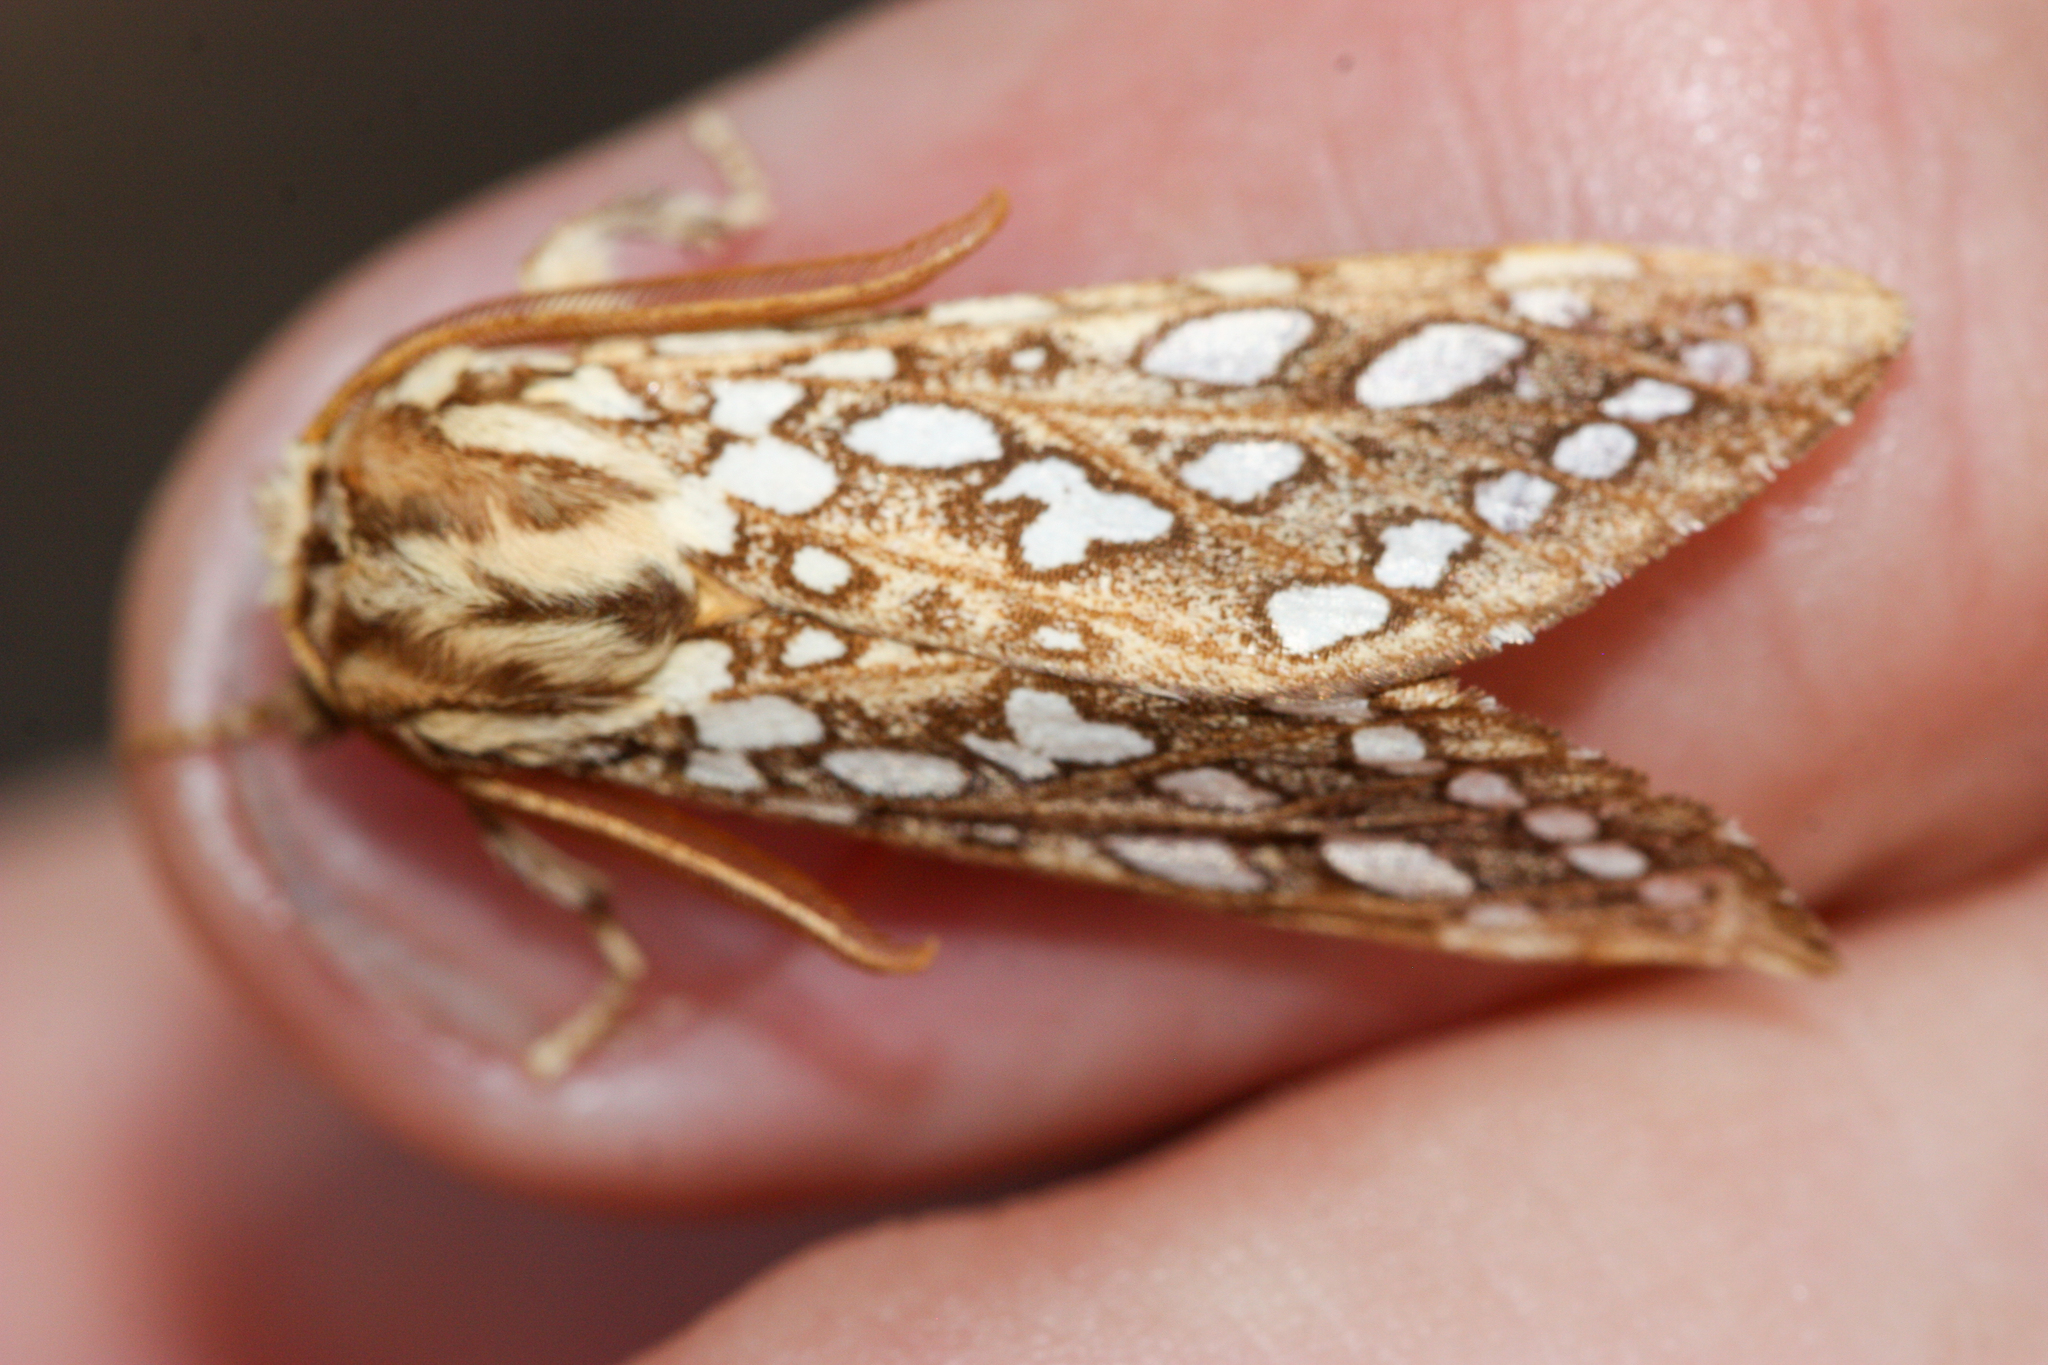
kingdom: Animalia
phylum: Arthropoda
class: Insecta
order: Lepidoptera
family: Erebidae
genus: Lophocampa
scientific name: Lophocampa argentata
